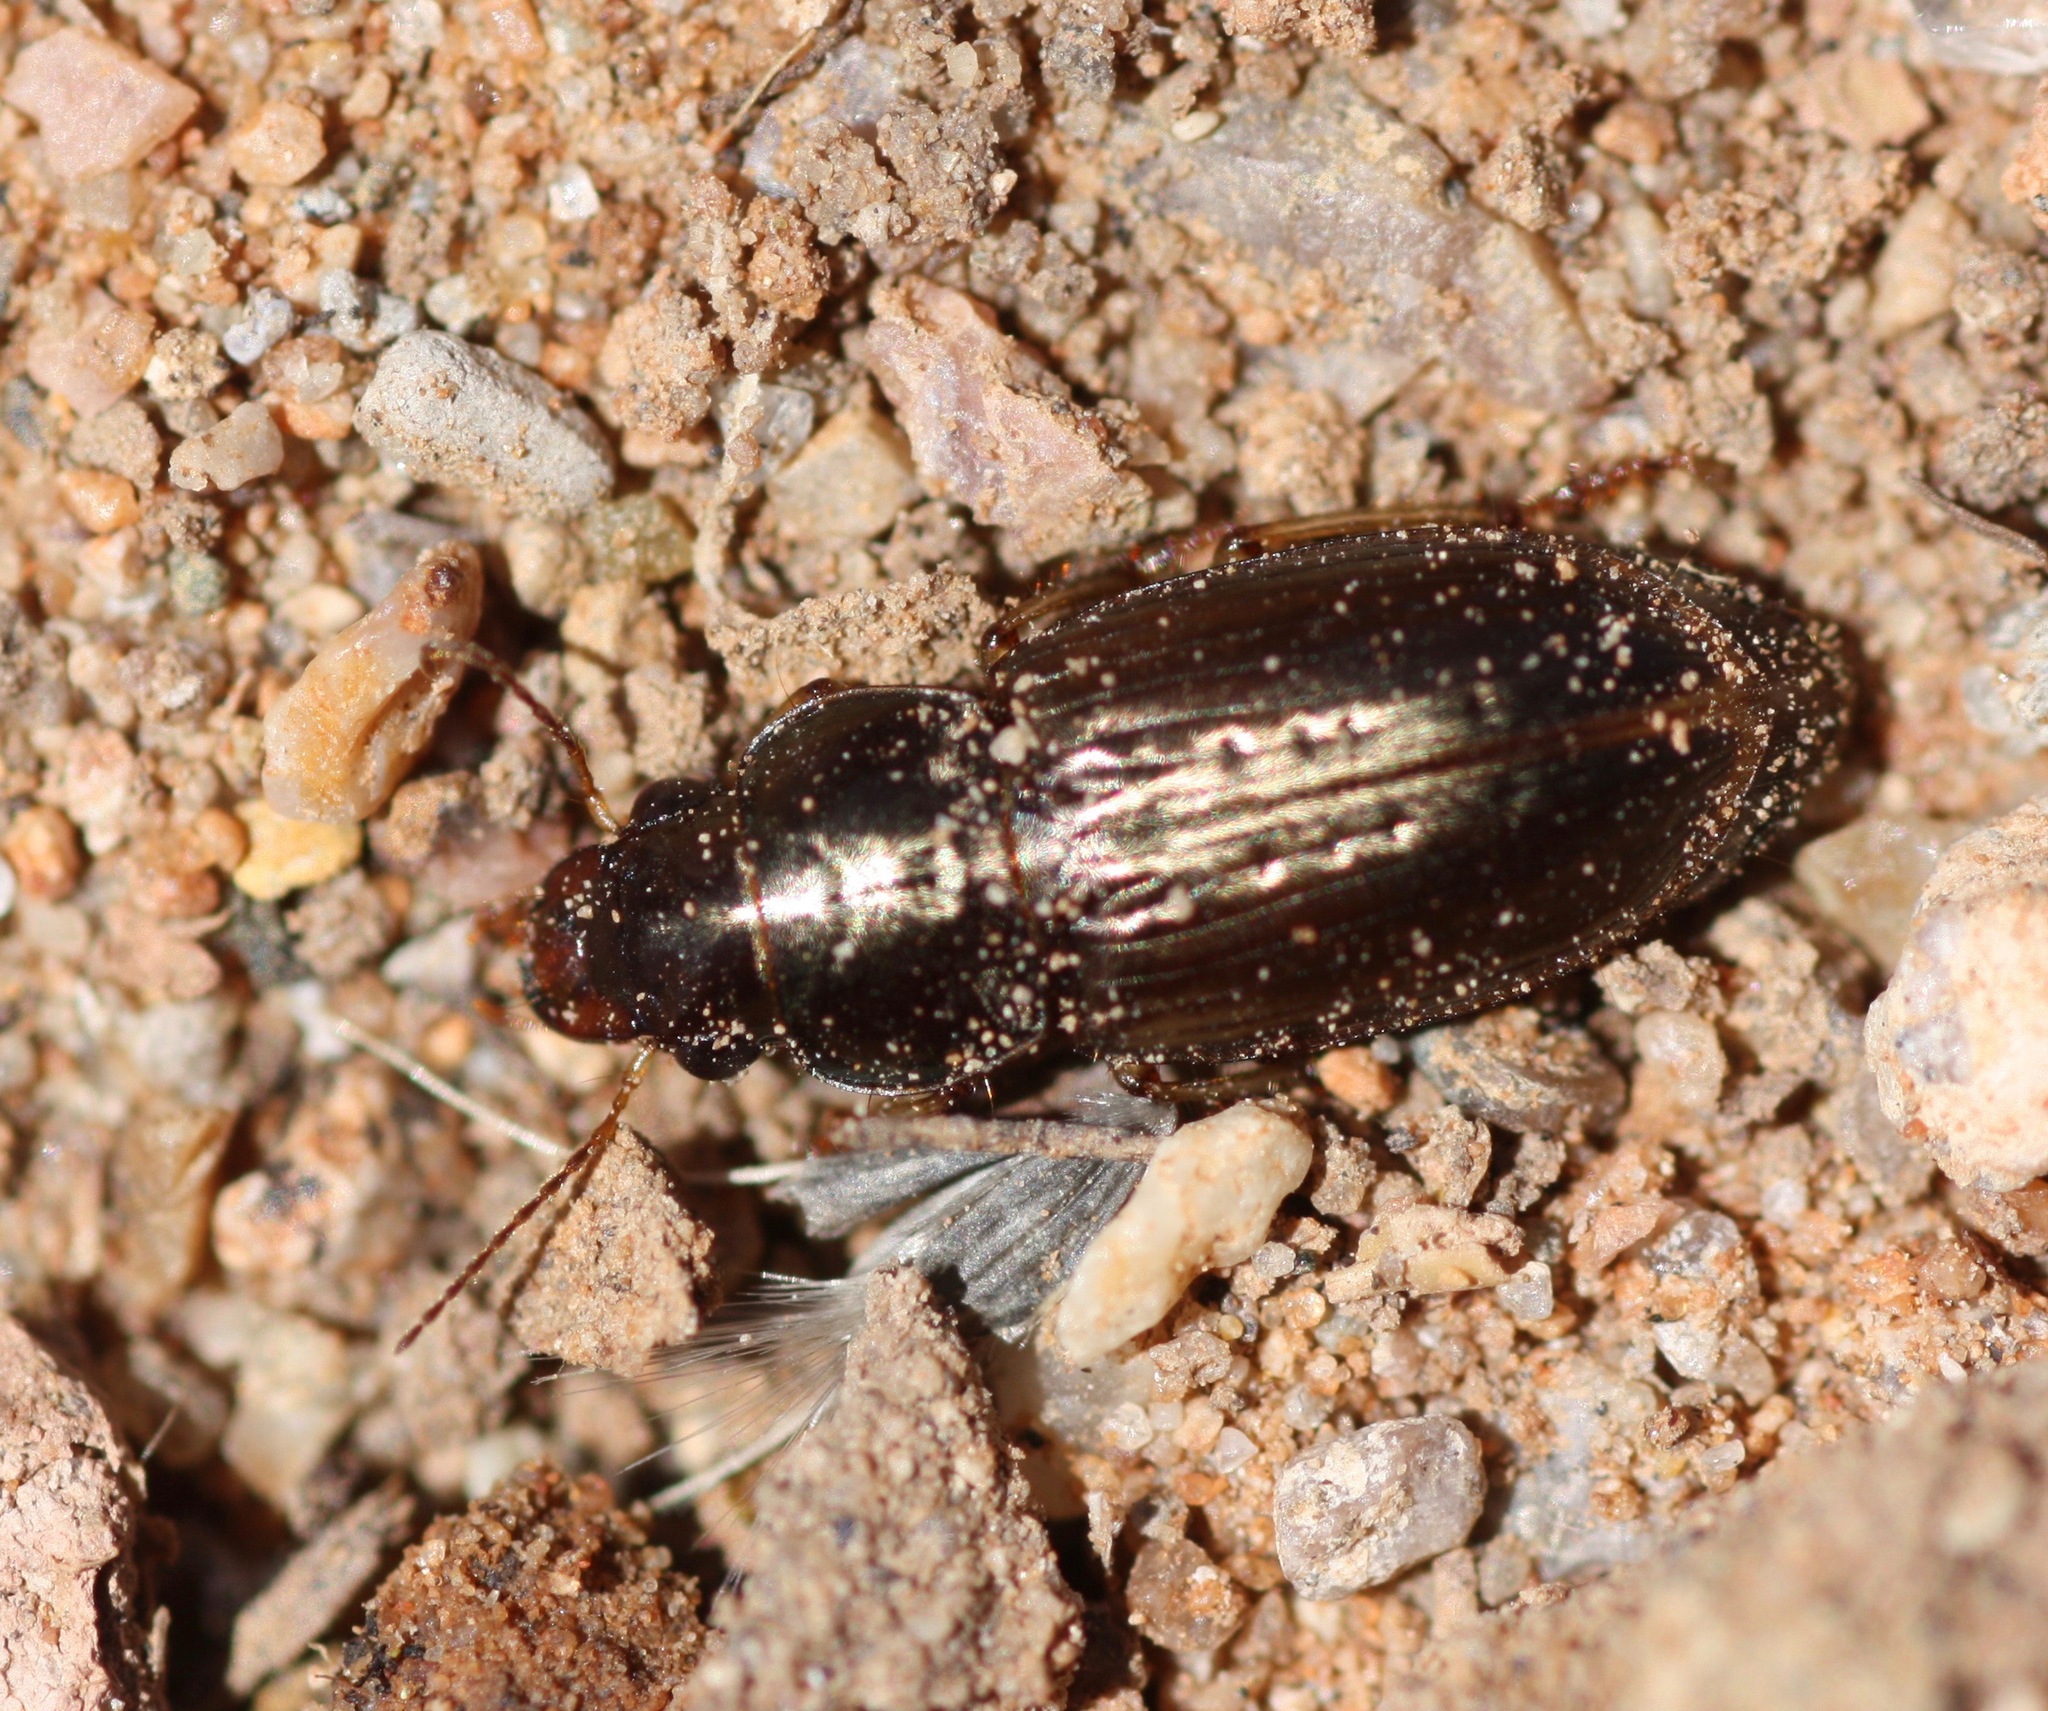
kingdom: Animalia
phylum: Arthropoda
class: Insecta
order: Coleoptera
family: Carabidae
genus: Selenophorus
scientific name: Selenophorus aequinoctialis
